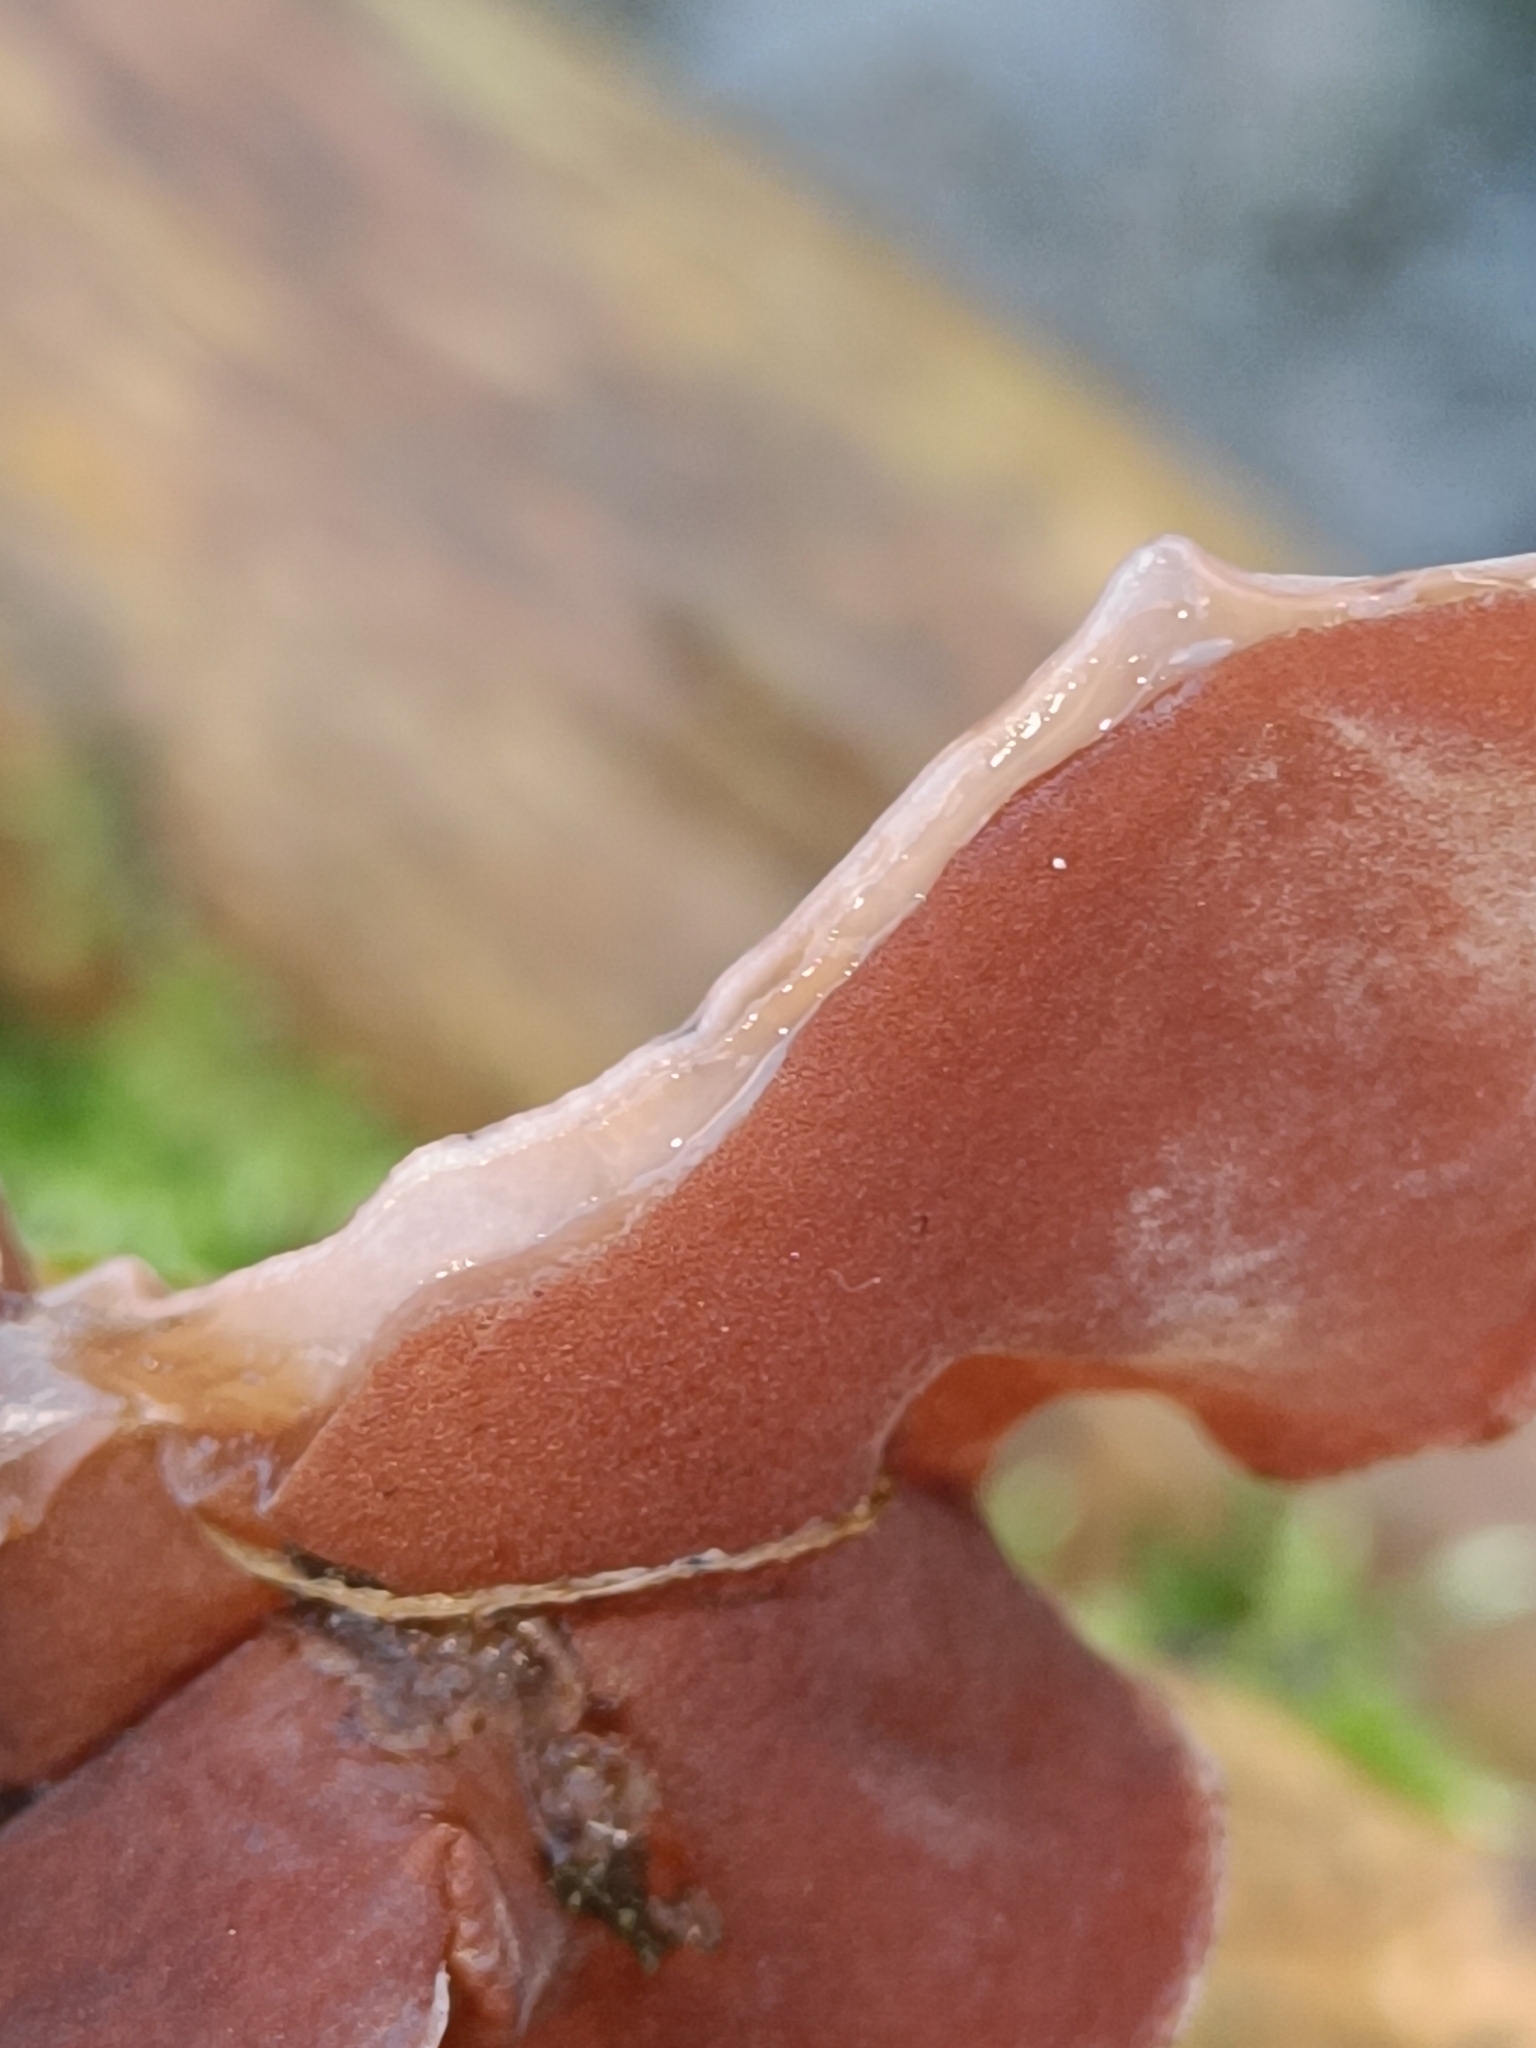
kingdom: Fungi
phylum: Basidiomycota
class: Agaricomycetes
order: Auriculariales
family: Auriculariaceae
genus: Auricularia
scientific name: Auricularia auricula-judae
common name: Jelly ear
